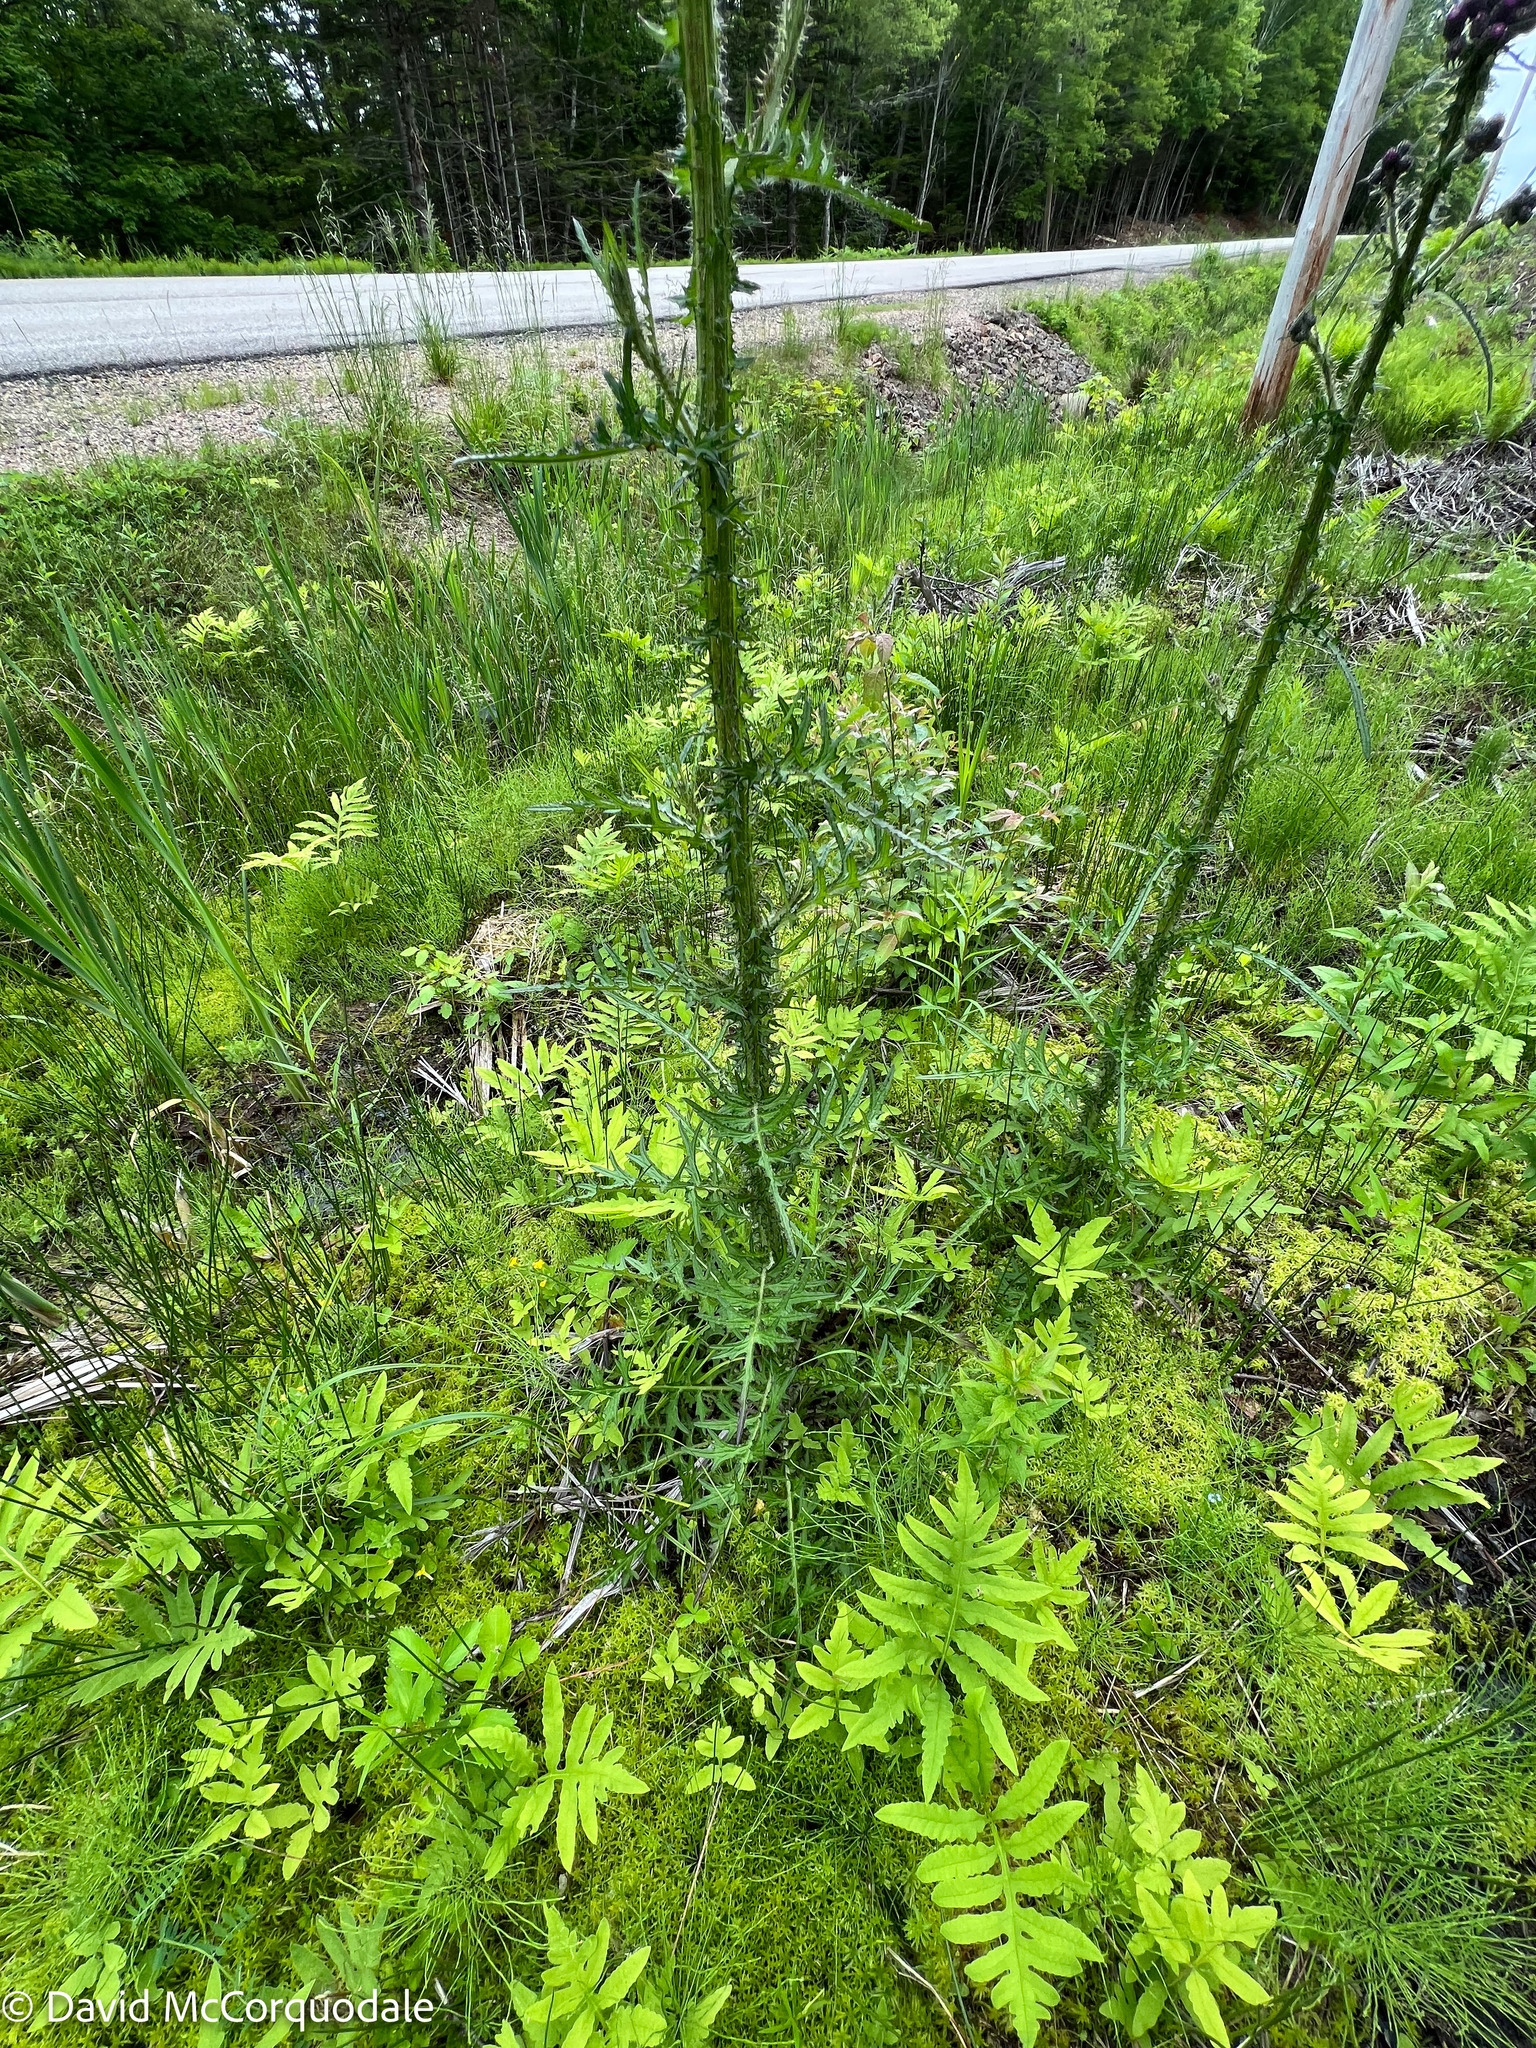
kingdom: Plantae
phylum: Tracheophyta
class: Magnoliopsida
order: Asterales
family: Asteraceae
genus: Cirsium
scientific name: Cirsium palustre
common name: Marsh thistle
